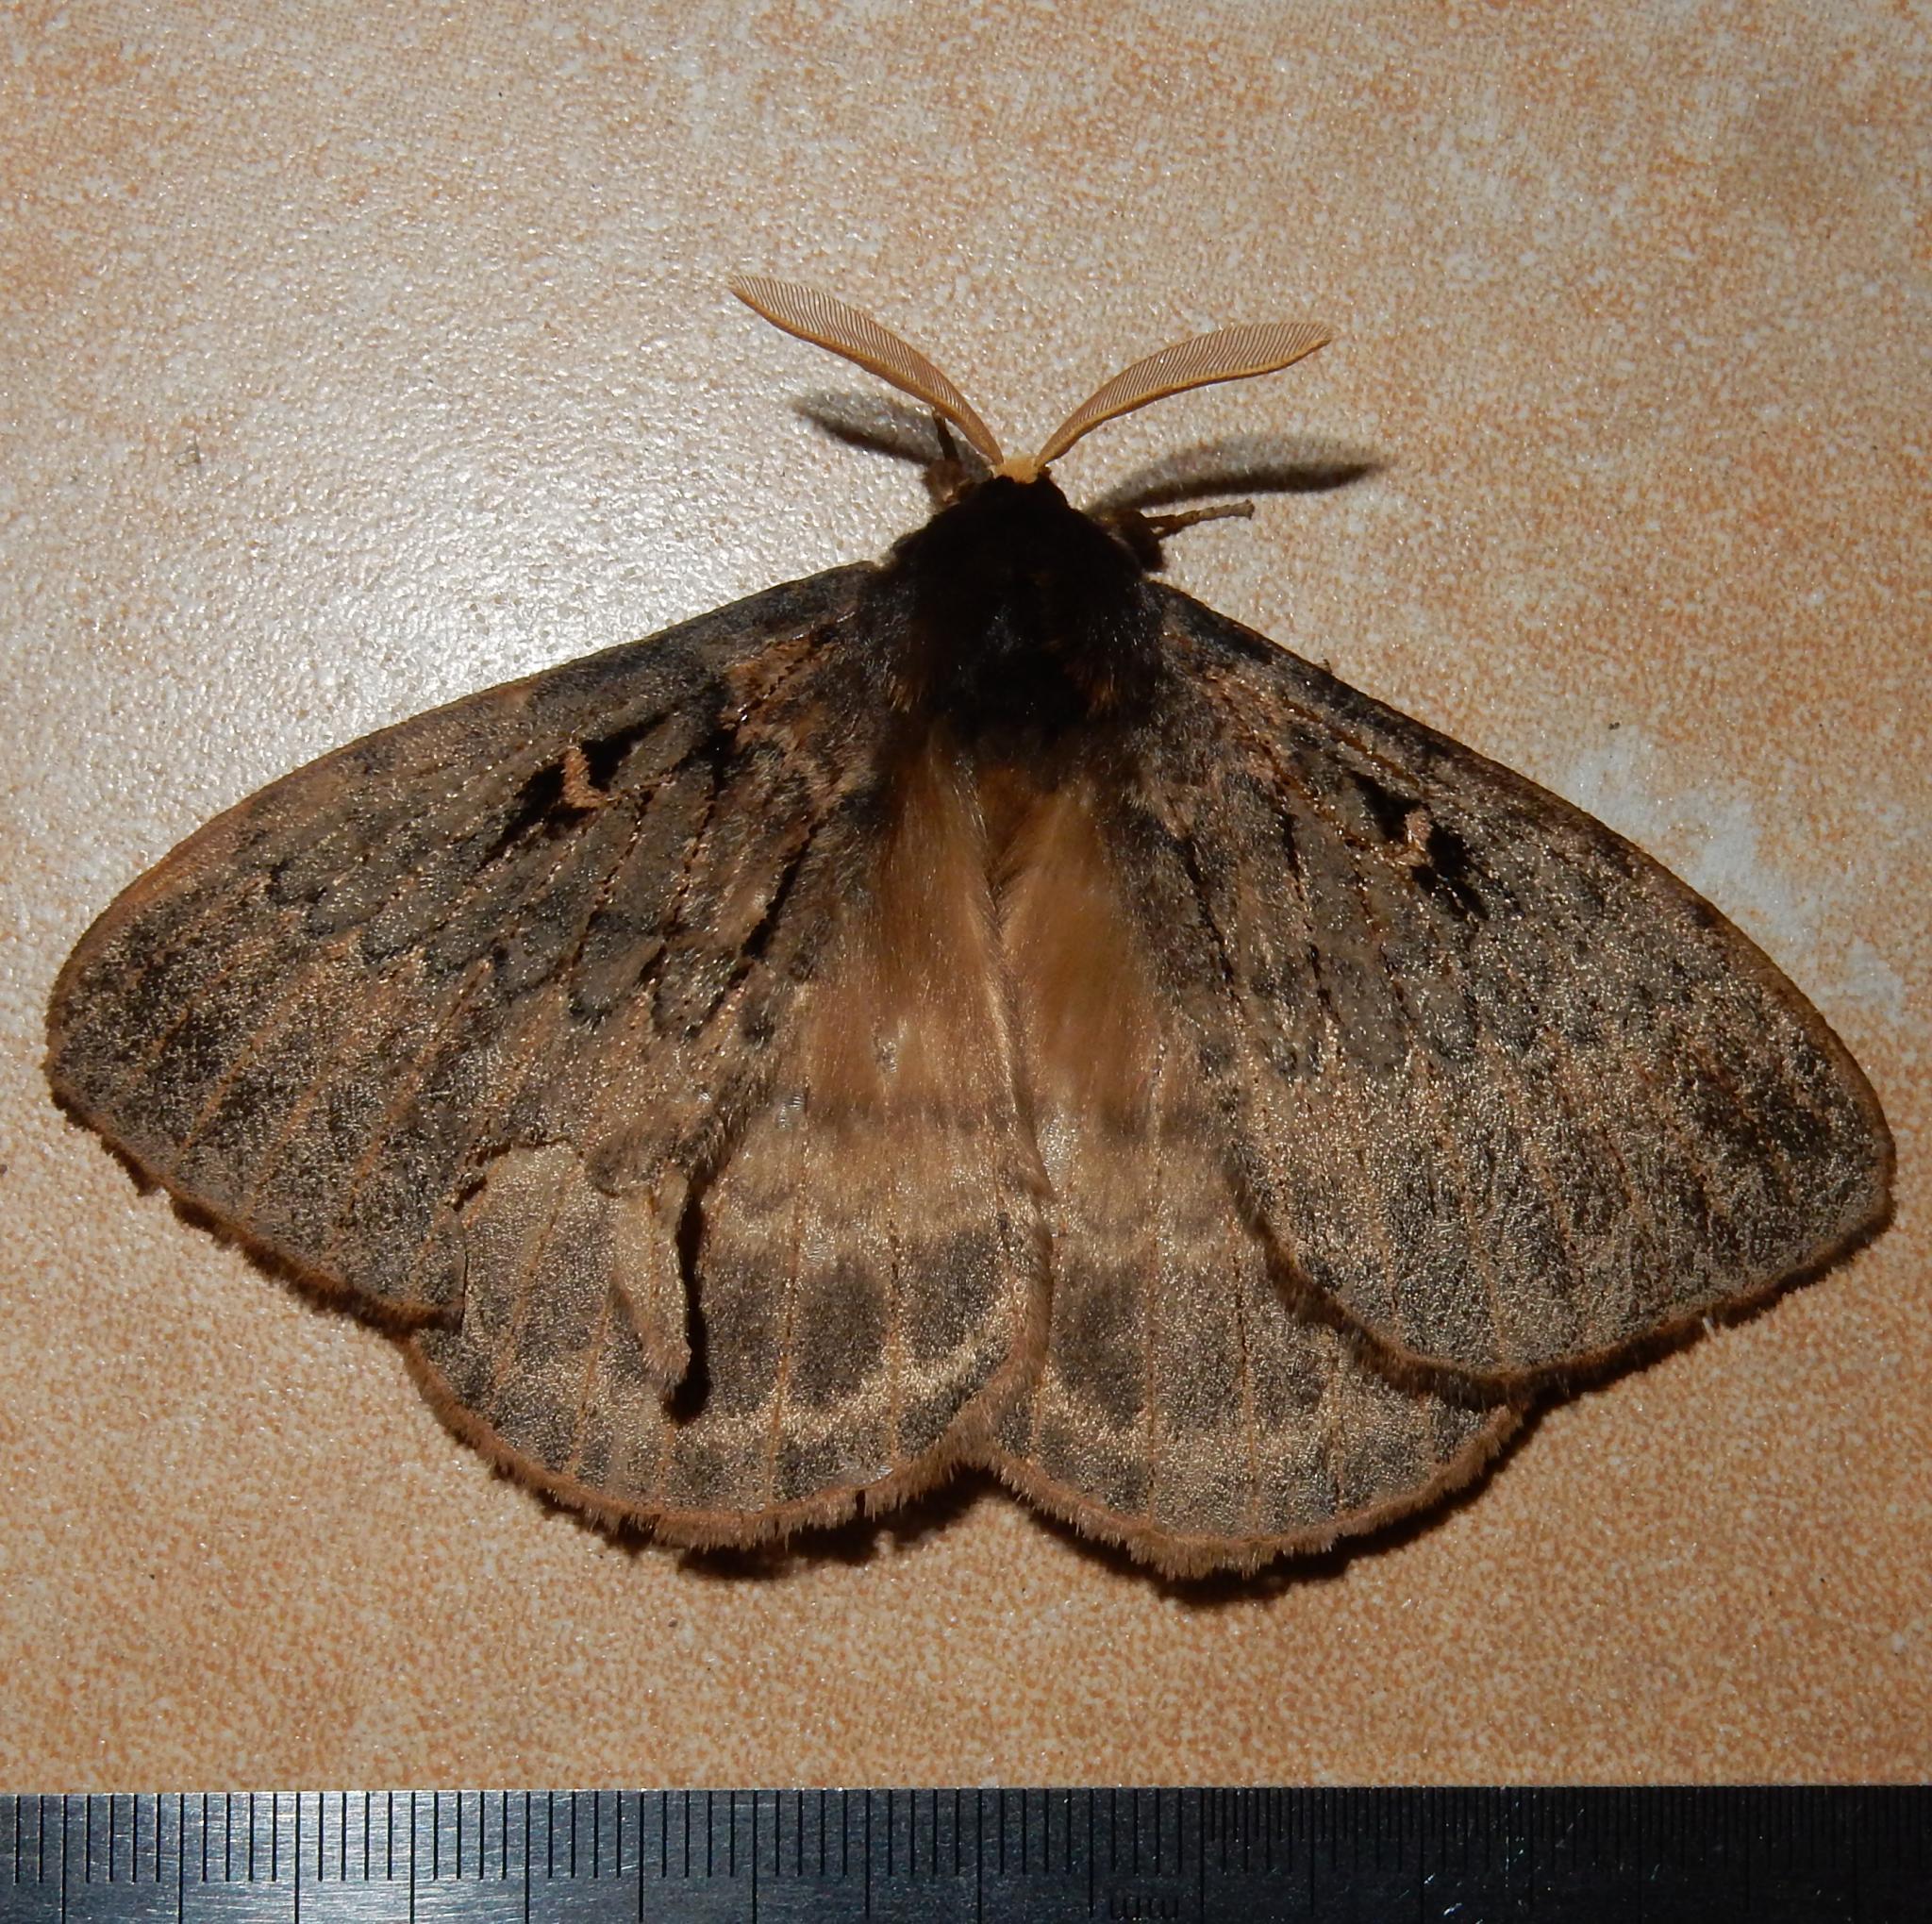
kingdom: Animalia
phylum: Arthropoda
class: Insecta
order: Lepidoptera
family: Eupterotidae
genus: Jana
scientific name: Jana tantalus
